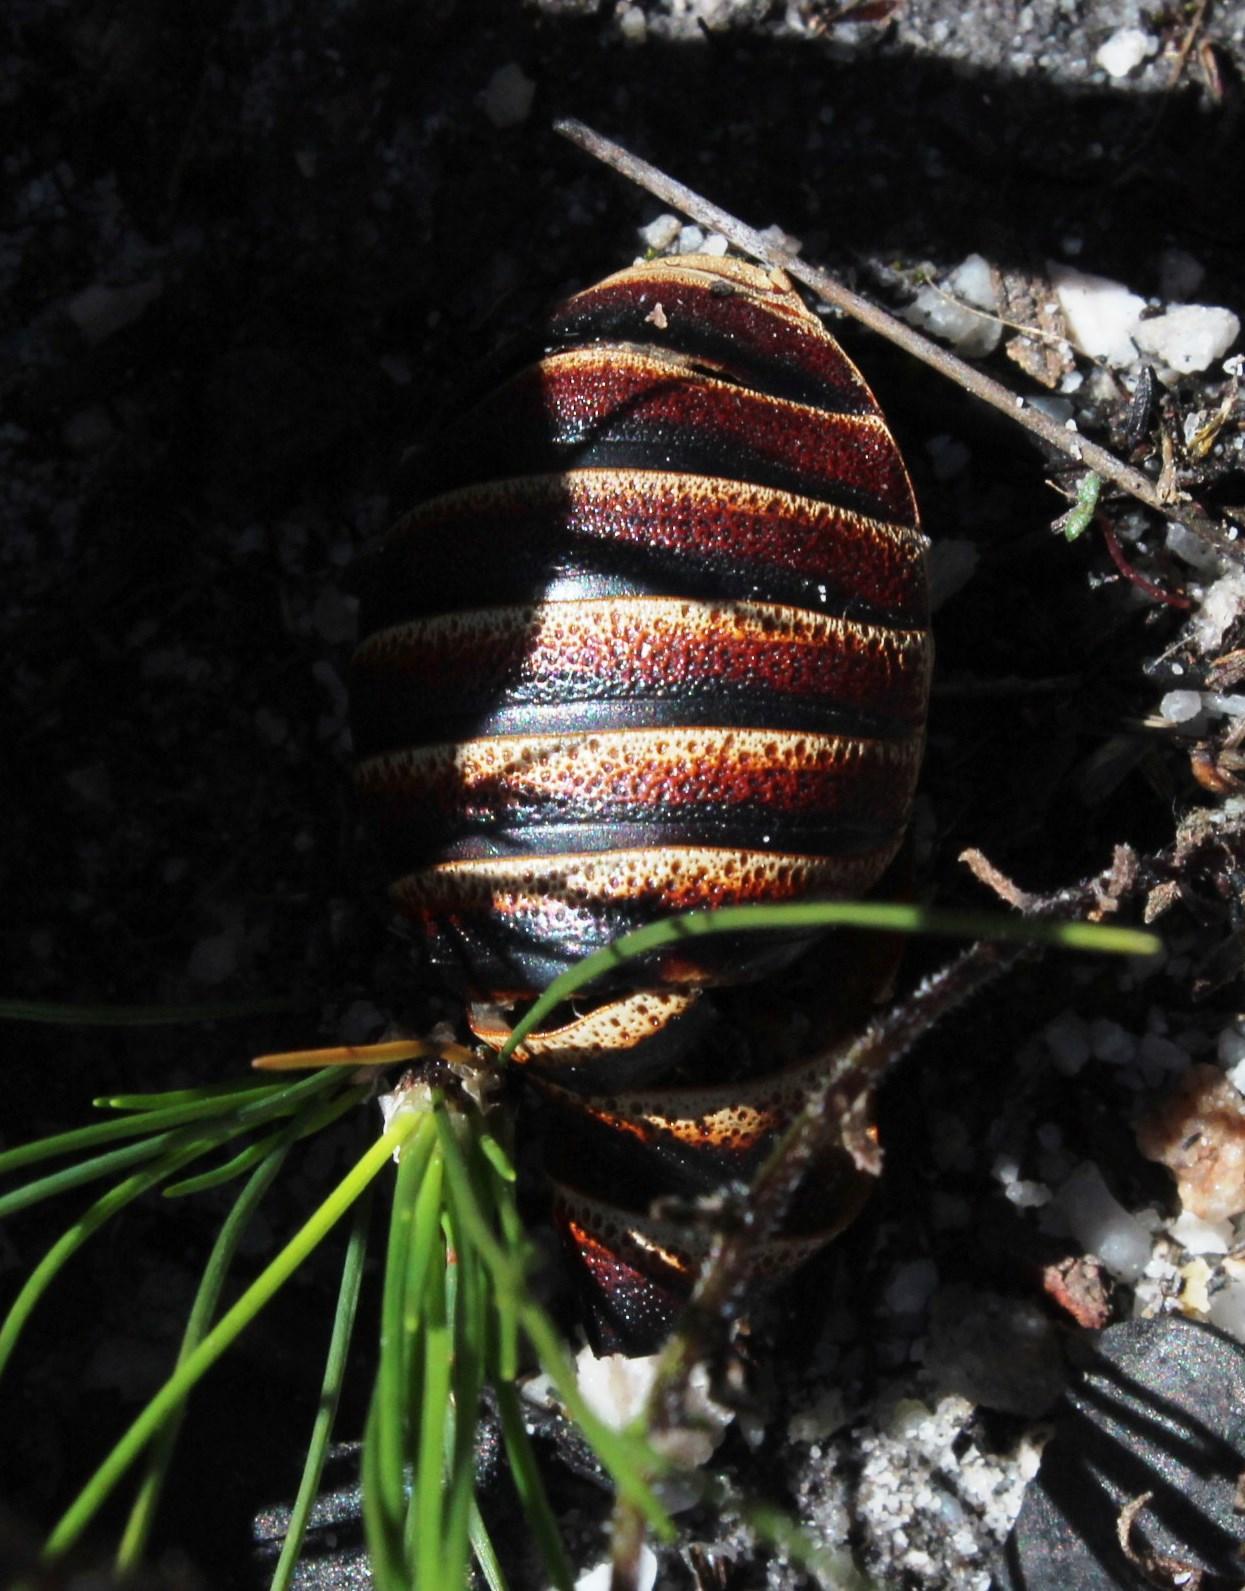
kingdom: Animalia
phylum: Arthropoda
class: Insecta
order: Blattodea
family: Blaberidae
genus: Aptera
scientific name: Aptera fusca
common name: Cape mountain cockroach
